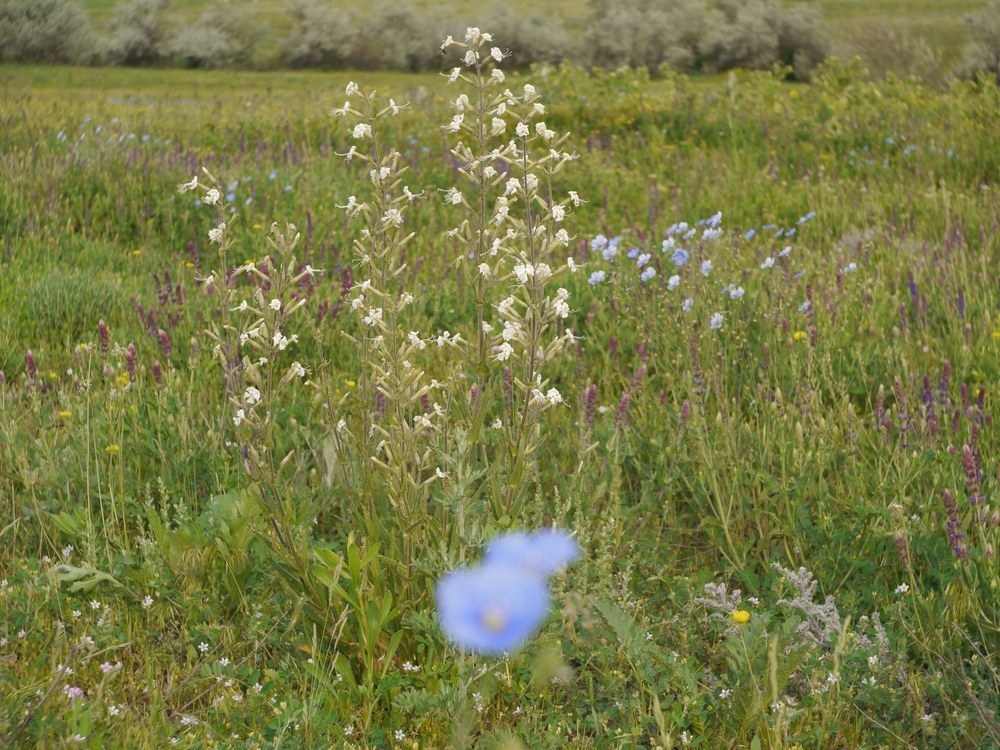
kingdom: Plantae
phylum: Tracheophyta
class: Magnoliopsida
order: Caryophyllales
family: Caryophyllaceae
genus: Silene
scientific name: Silene viscosa
